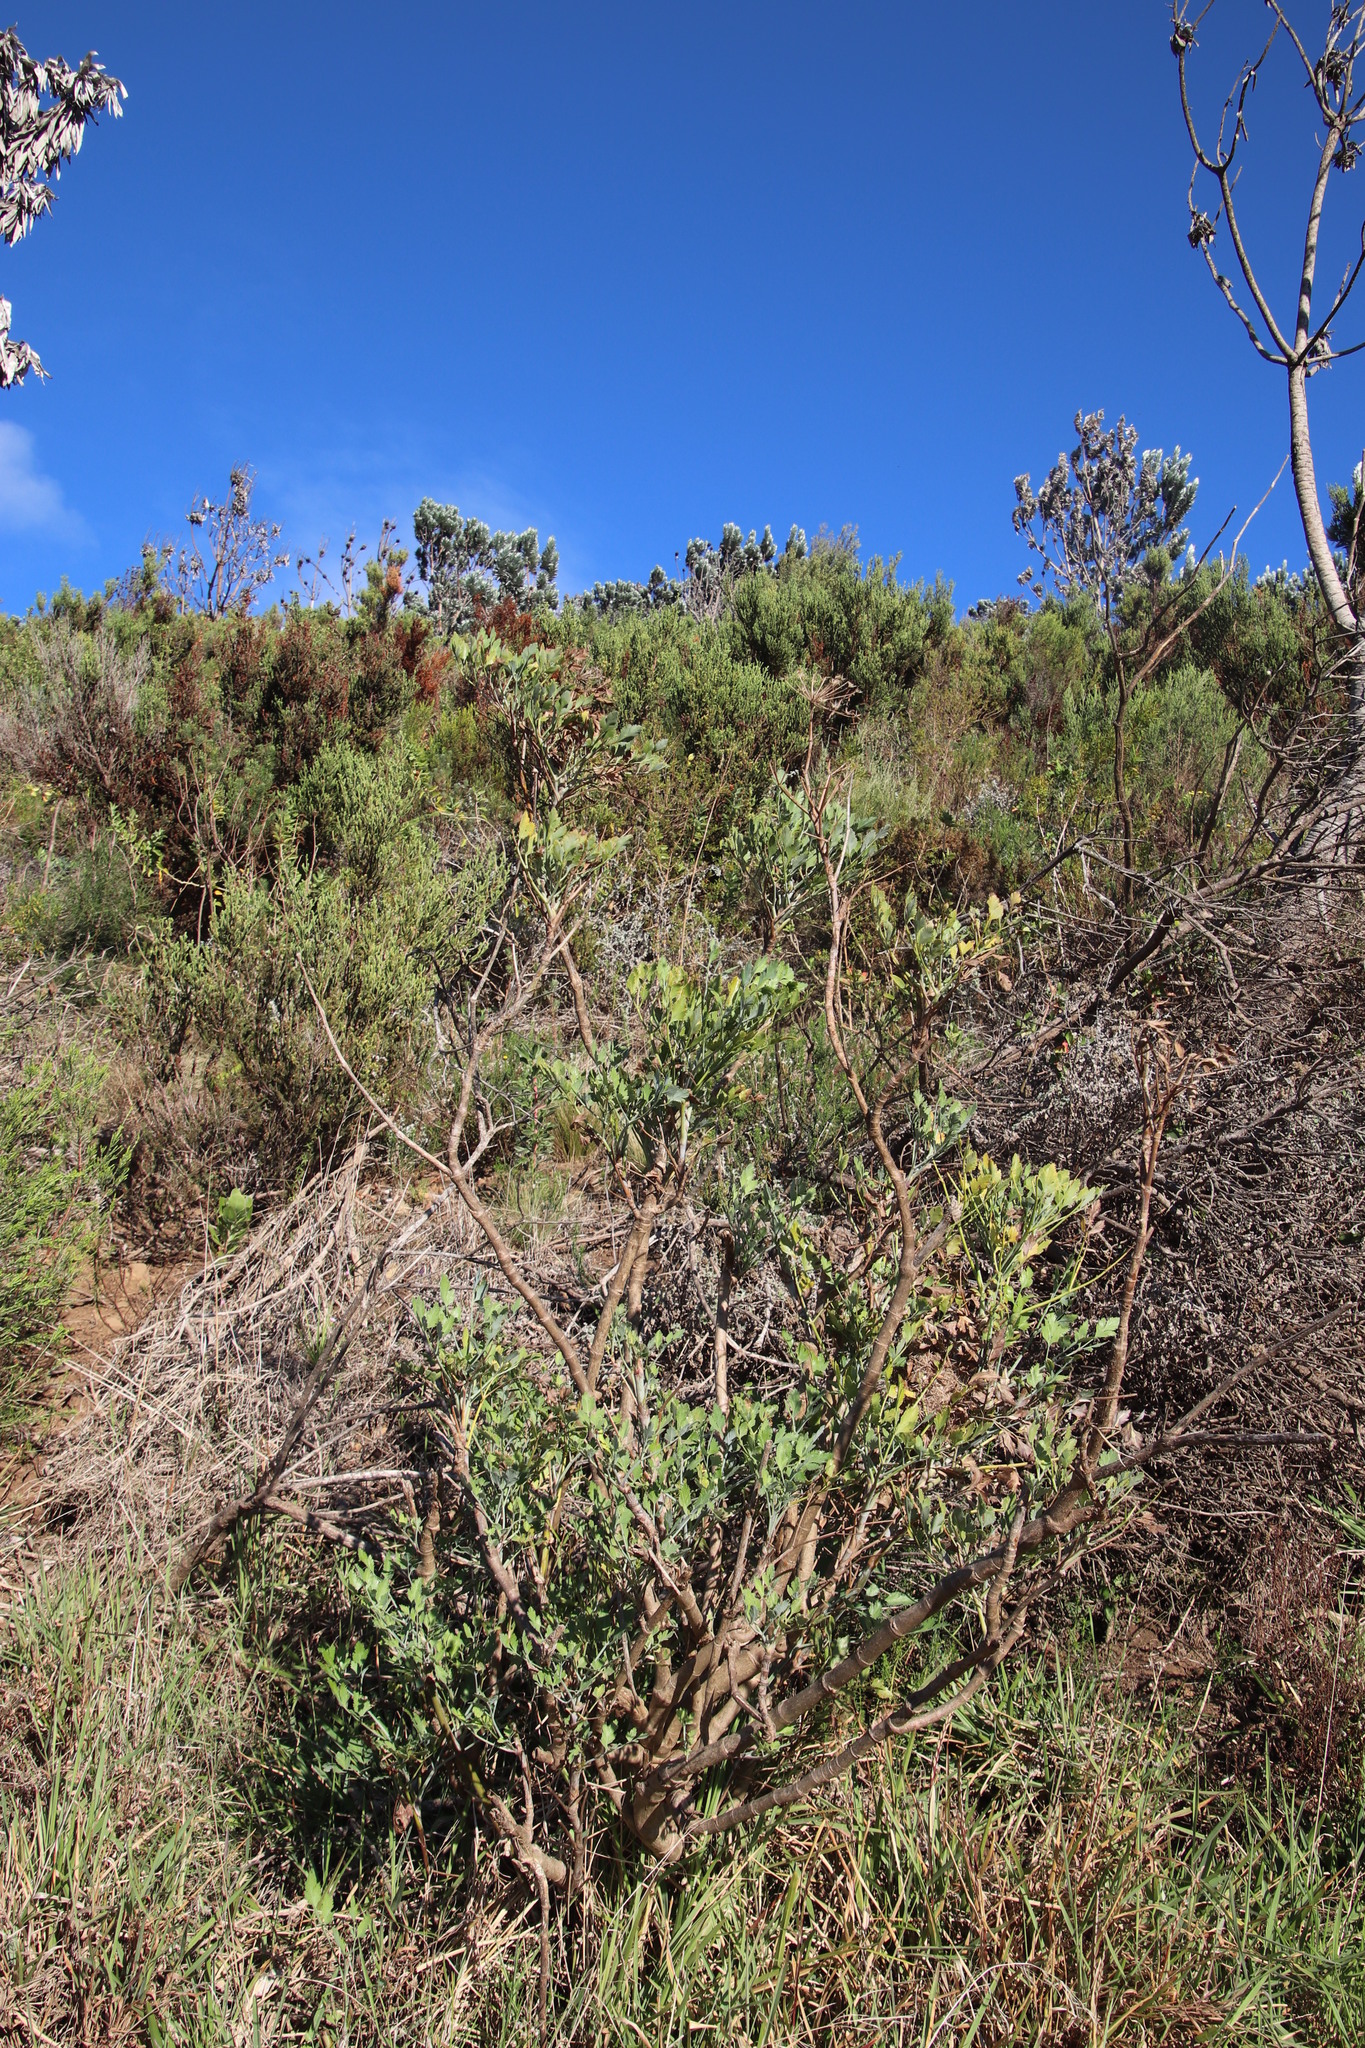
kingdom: Plantae
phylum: Tracheophyta
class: Magnoliopsida
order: Apiales
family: Apiaceae
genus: Notobubon
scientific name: Notobubon galbanum
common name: Blisterbush
